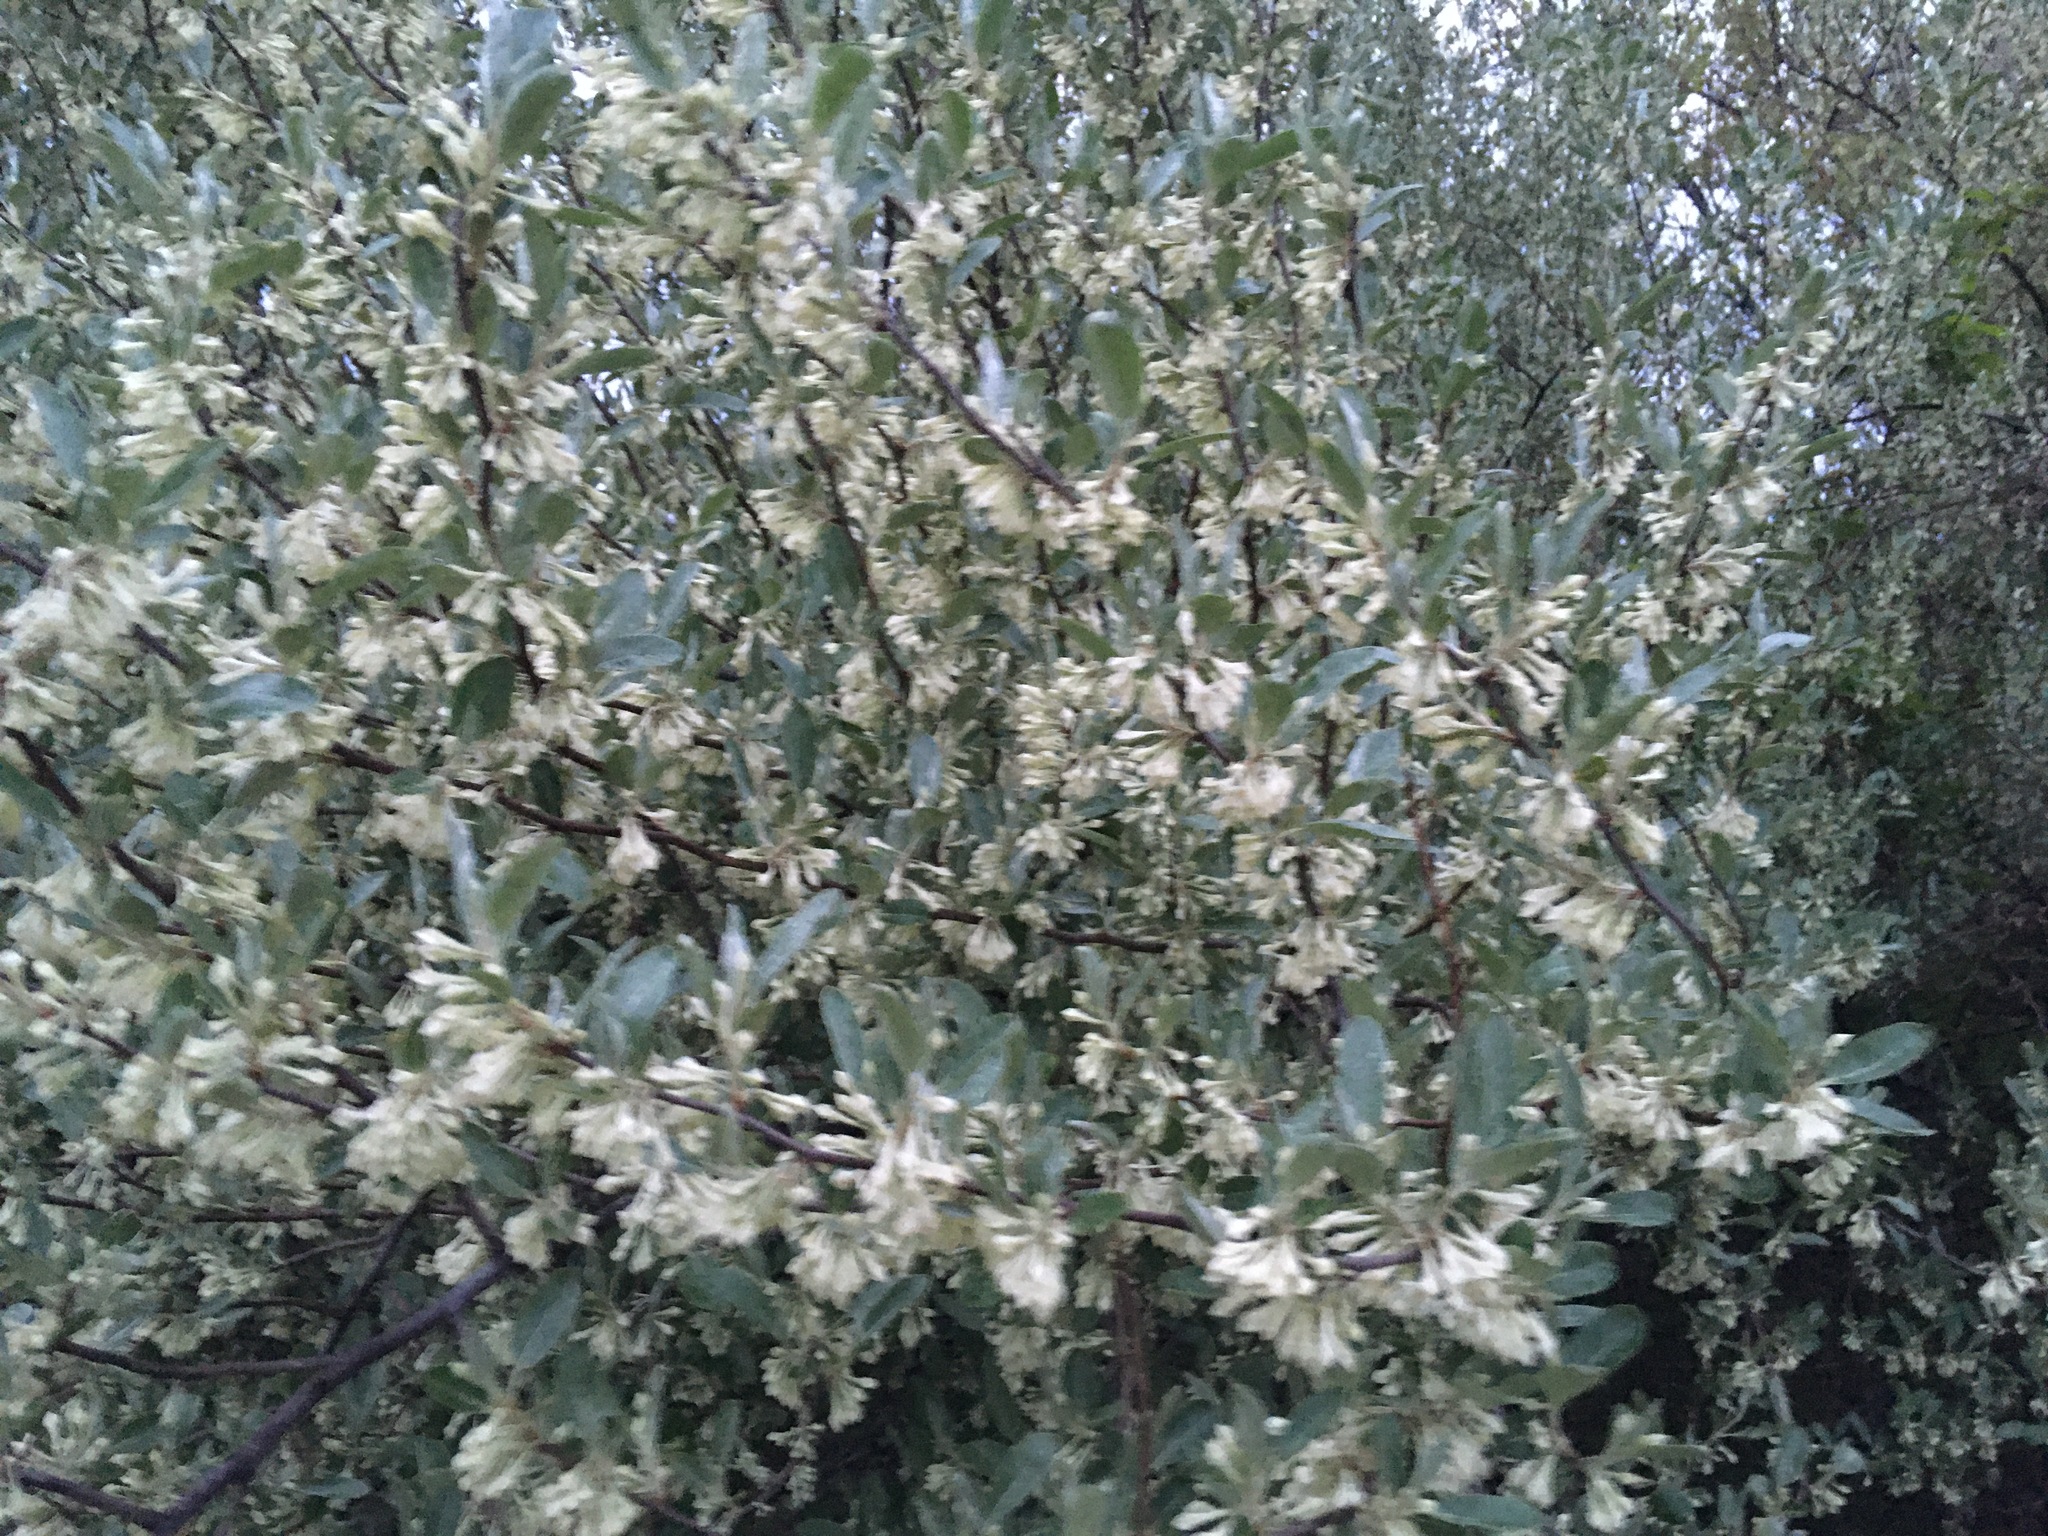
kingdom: Plantae
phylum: Tracheophyta
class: Magnoliopsida
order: Rosales
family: Elaeagnaceae
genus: Elaeagnus
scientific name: Elaeagnus umbellata
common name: Autumn olive
